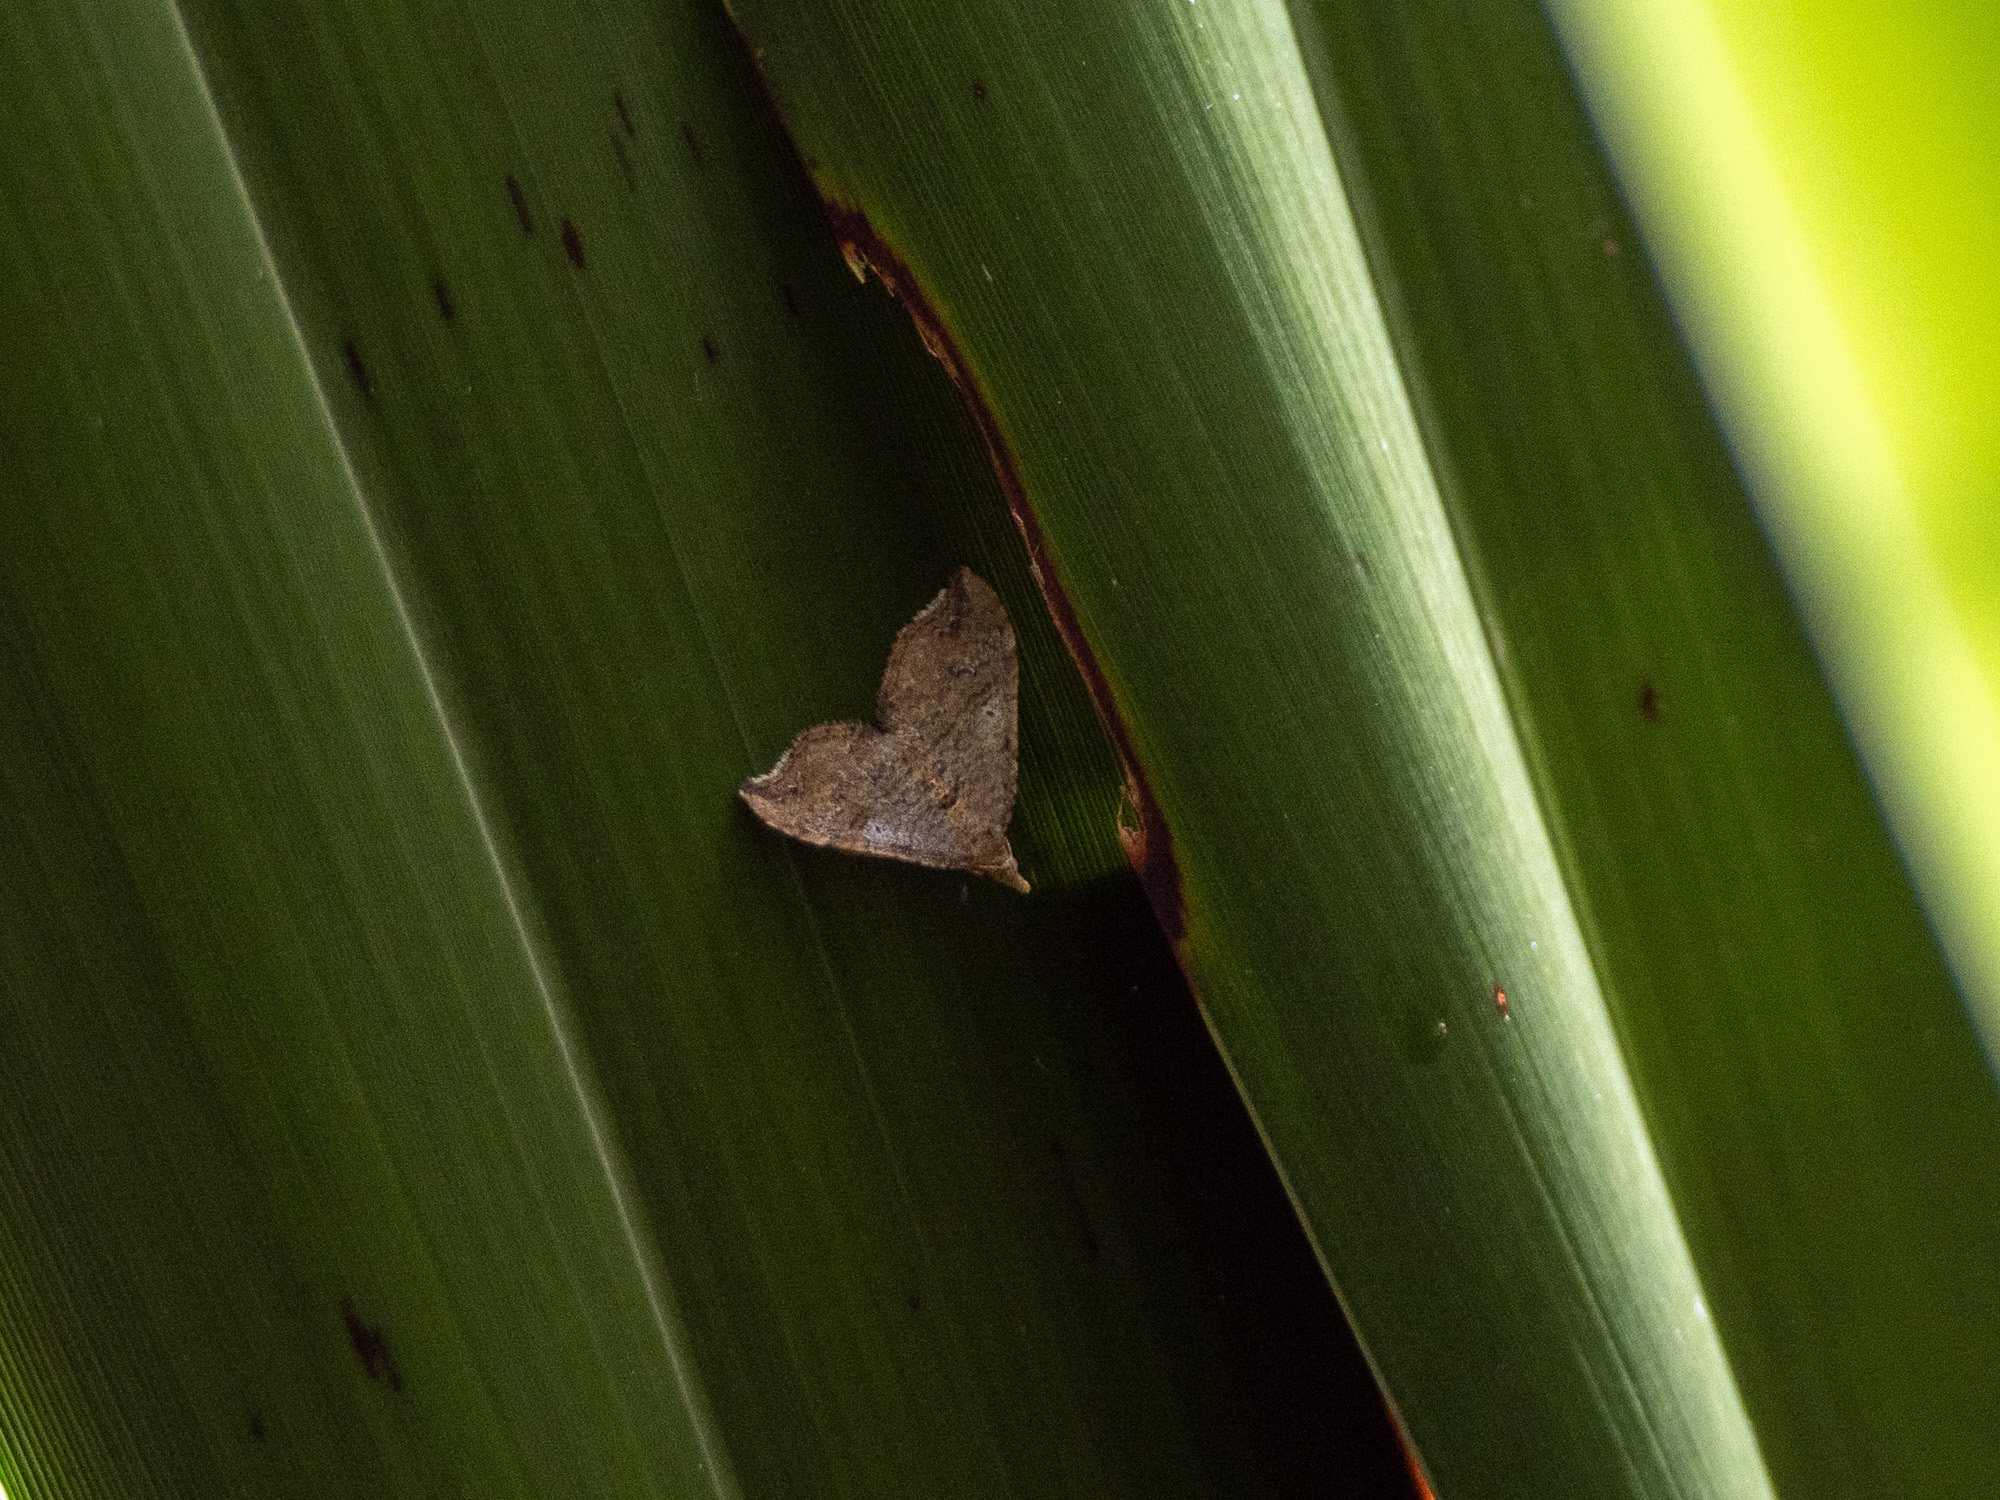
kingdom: Animalia
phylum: Arthropoda
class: Insecta
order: Lepidoptera
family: Geometridae
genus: Homodotis
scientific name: Homodotis megaspilata
